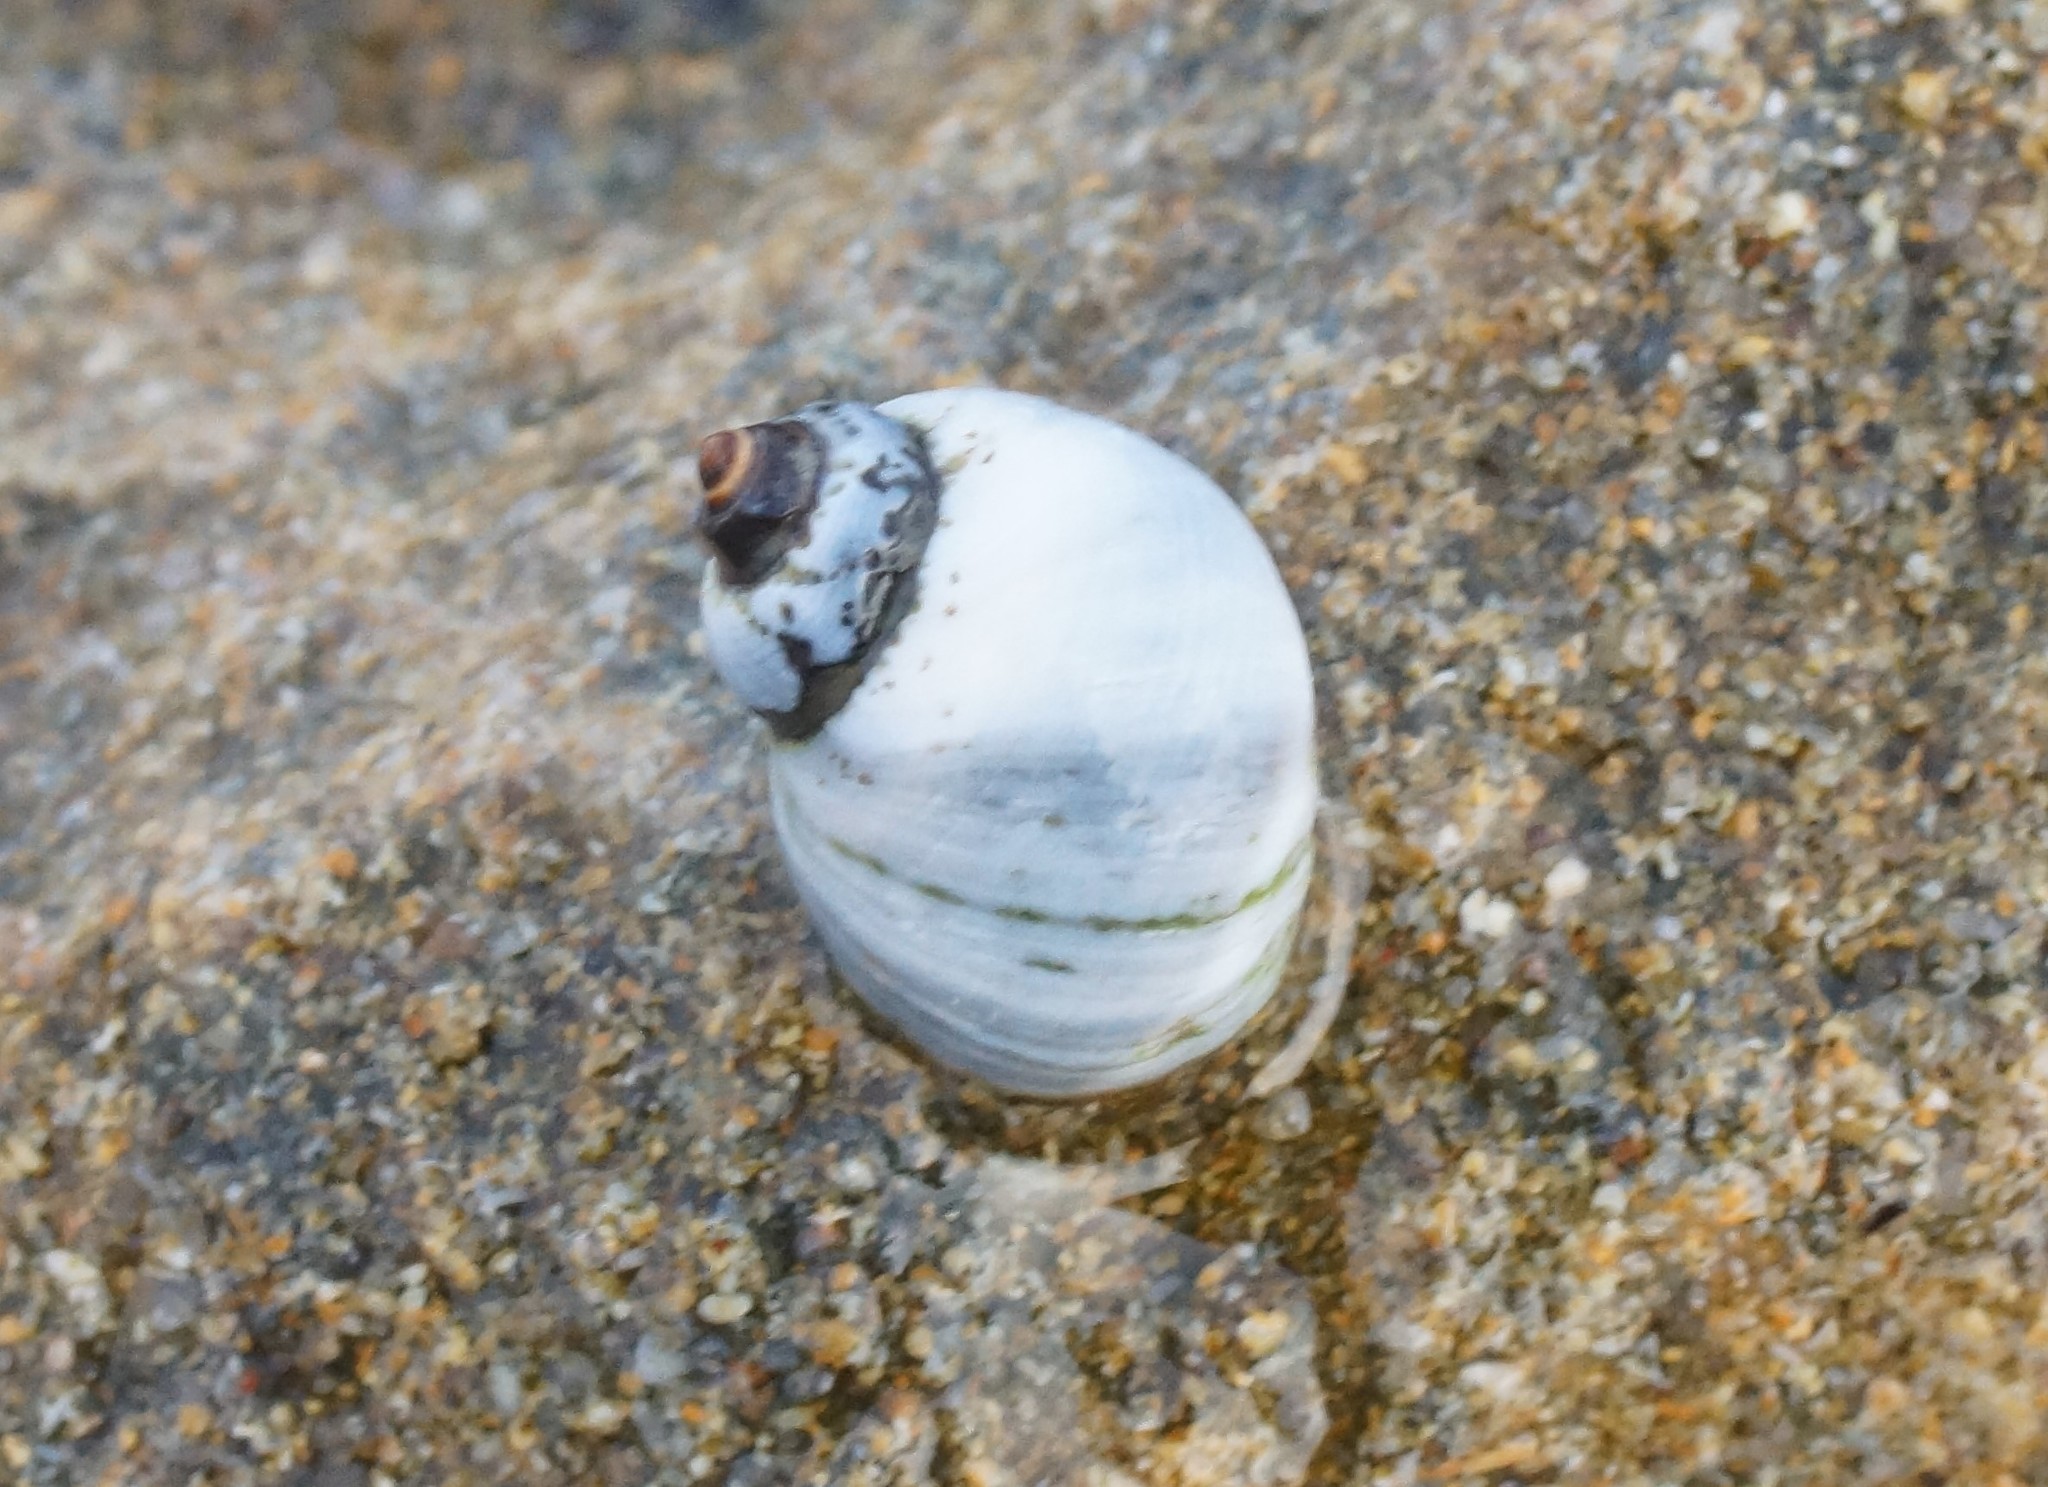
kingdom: Animalia
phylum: Mollusca
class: Gastropoda
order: Littorinimorpha
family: Littorinidae
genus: Austrolittorina
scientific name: Austrolittorina unifasciata
